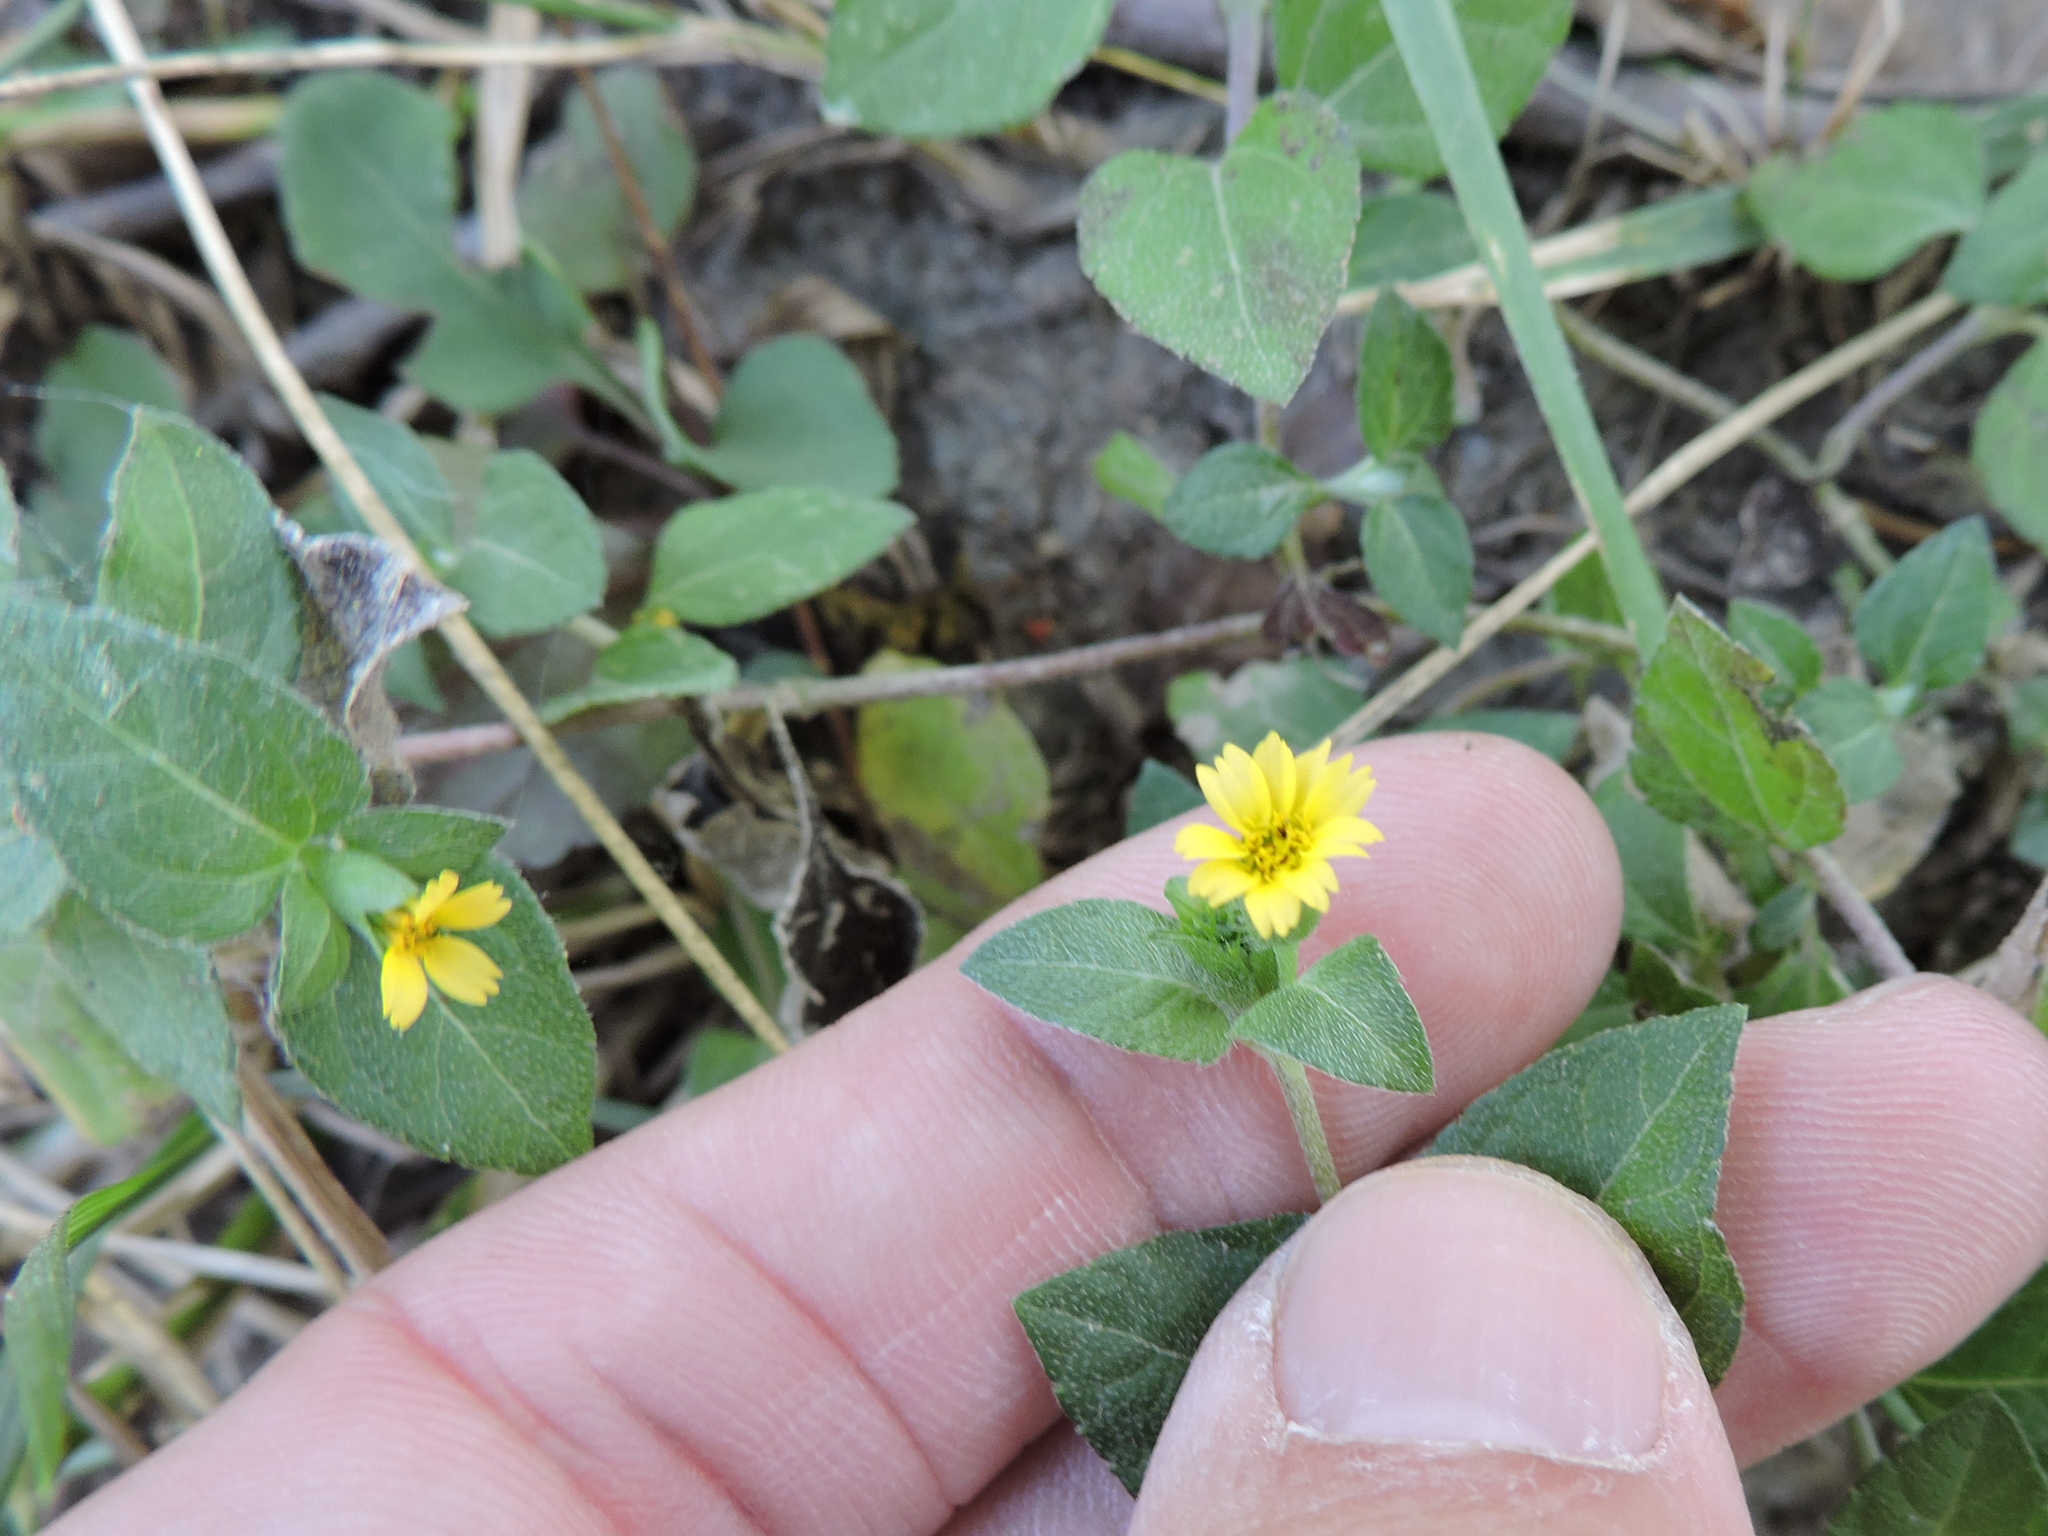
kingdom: Plantae
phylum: Tracheophyta
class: Magnoliopsida
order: Asterales
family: Asteraceae
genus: Calyptocarpus
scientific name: Calyptocarpus vialis
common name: Straggler daisy
